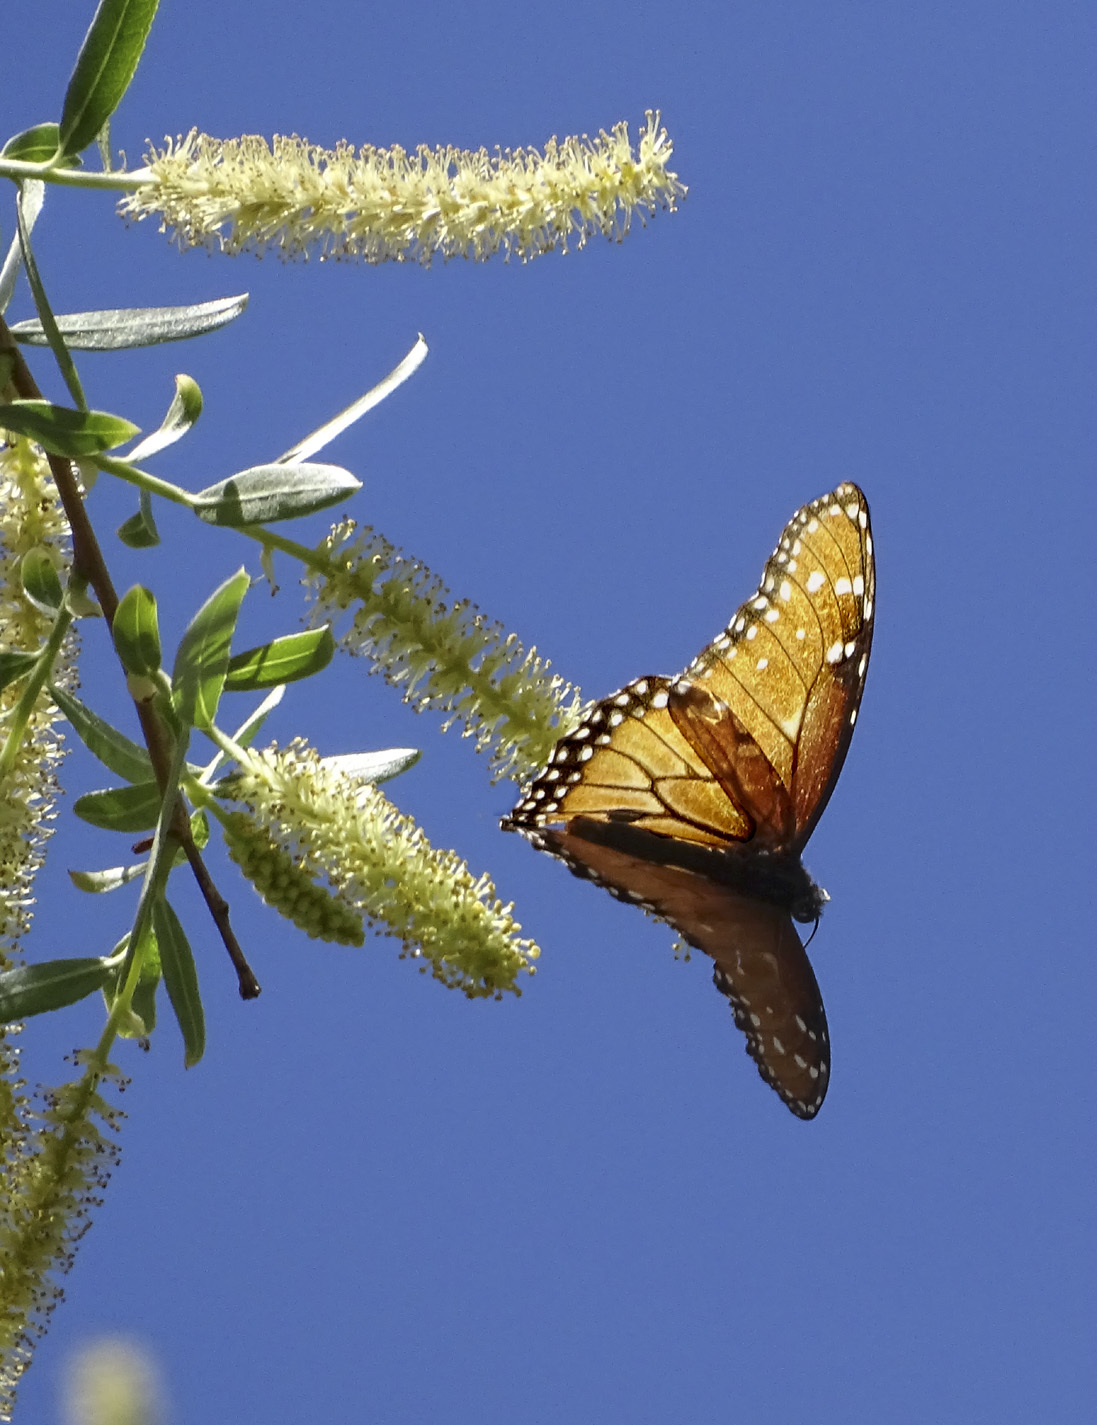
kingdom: Animalia
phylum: Arthropoda
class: Insecta
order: Lepidoptera
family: Nymphalidae
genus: Danaus
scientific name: Danaus gilippus
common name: Queen
